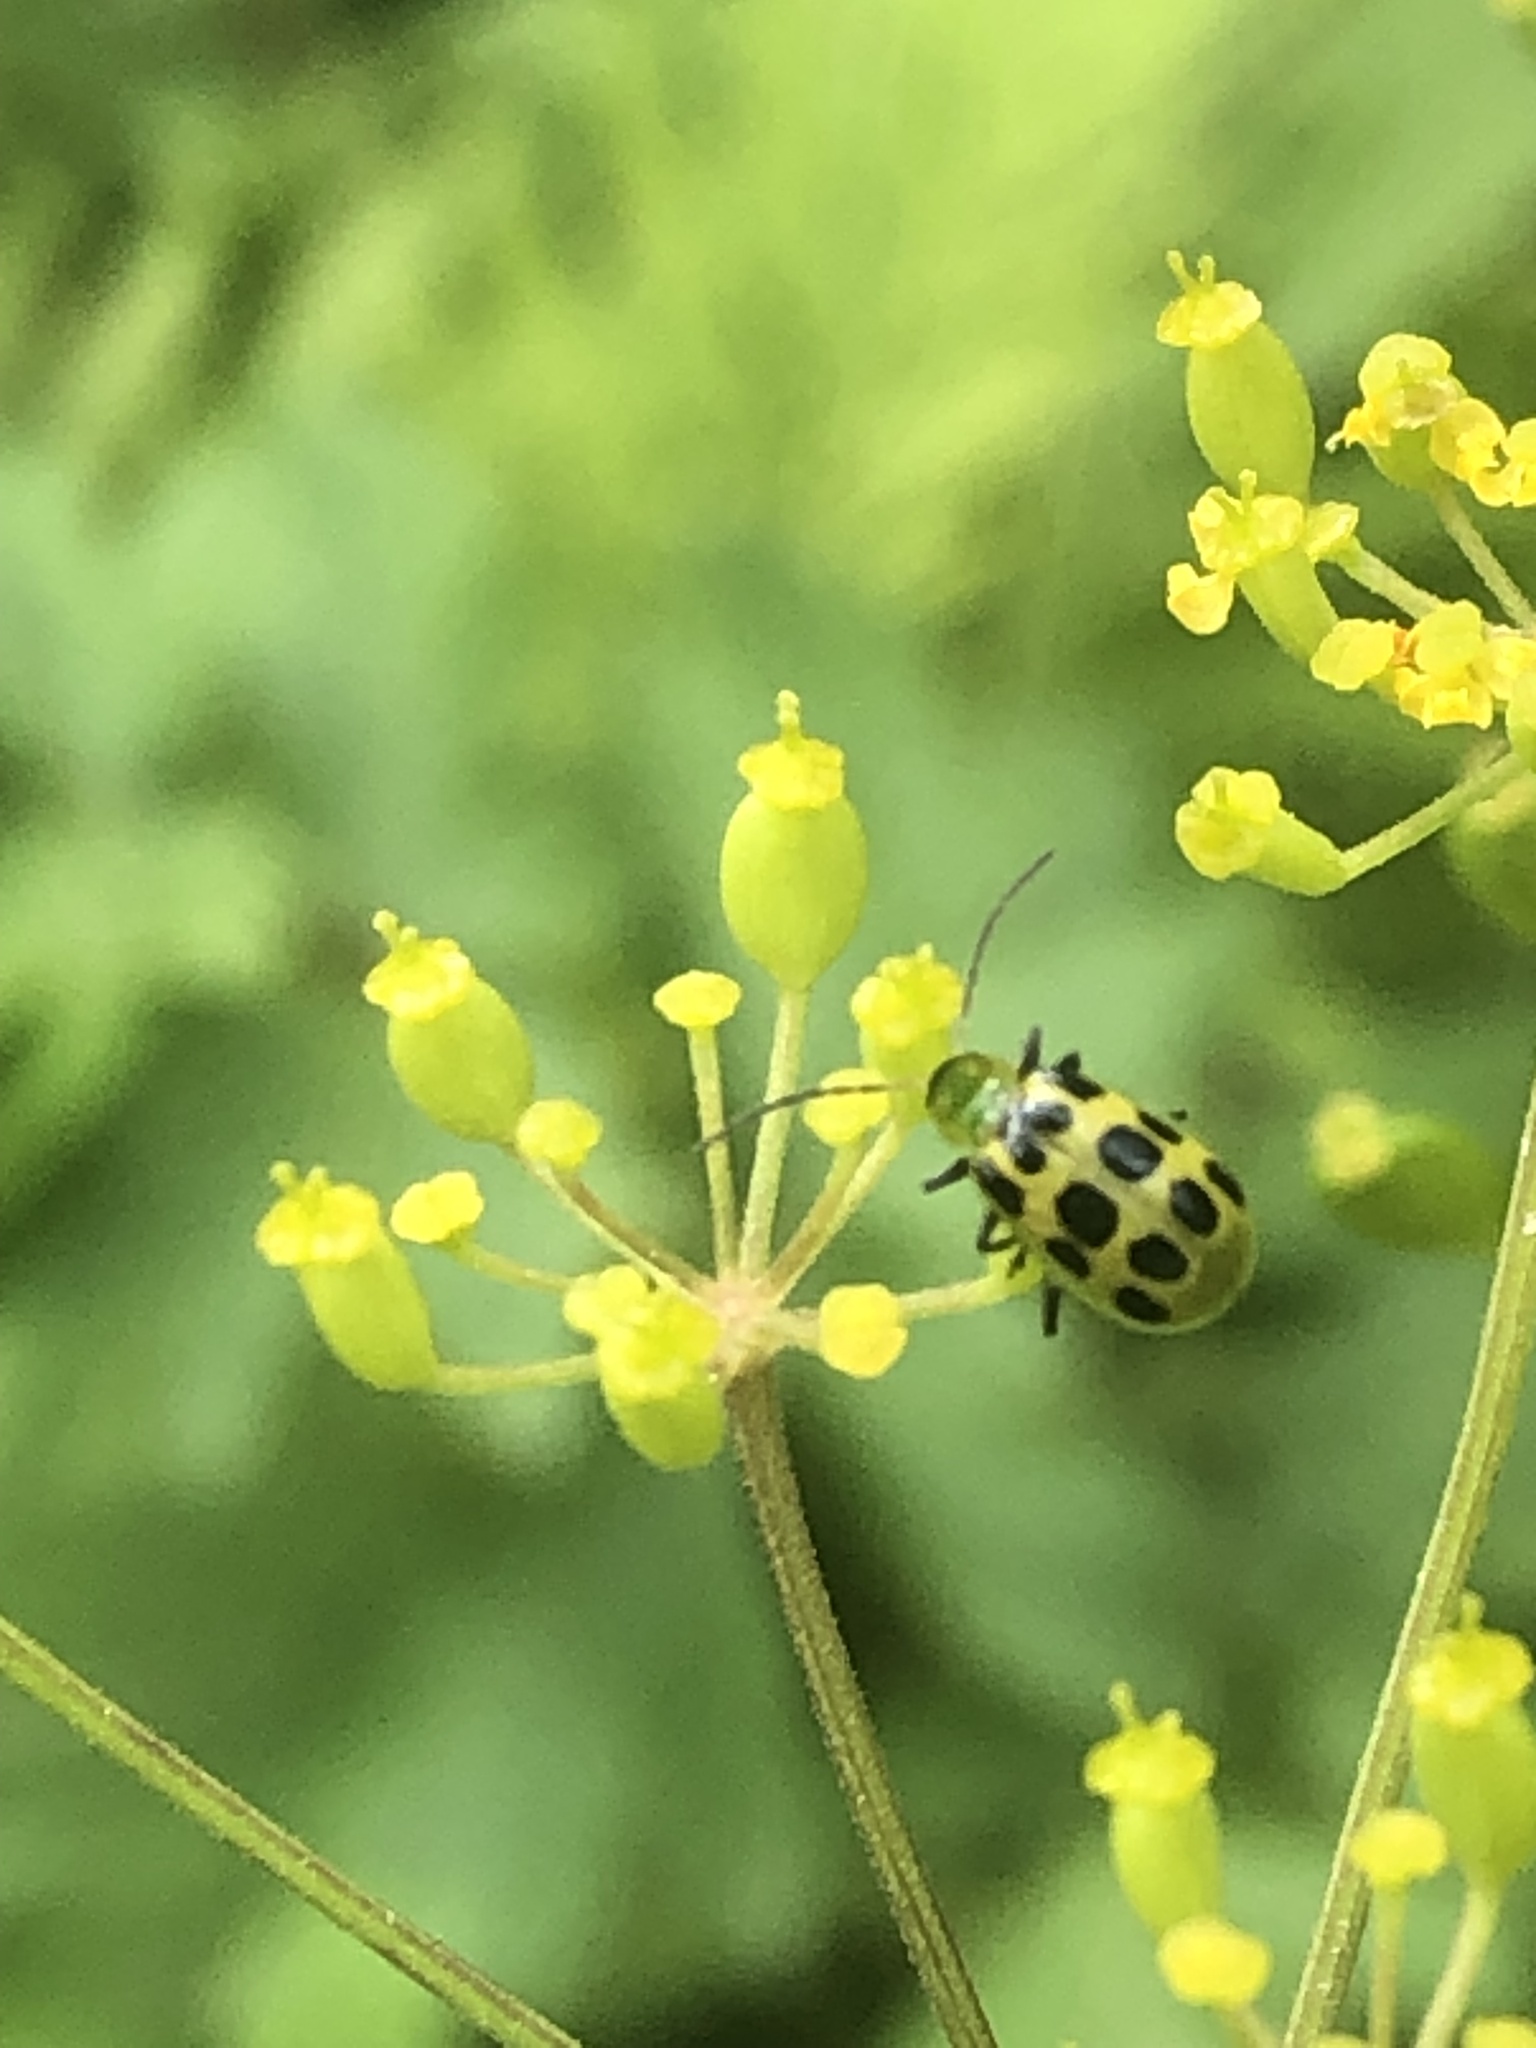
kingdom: Animalia
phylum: Arthropoda
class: Insecta
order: Coleoptera
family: Chrysomelidae
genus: Diabrotica
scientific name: Diabrotica undecimpunctata
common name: Spotted cucumber beetle
